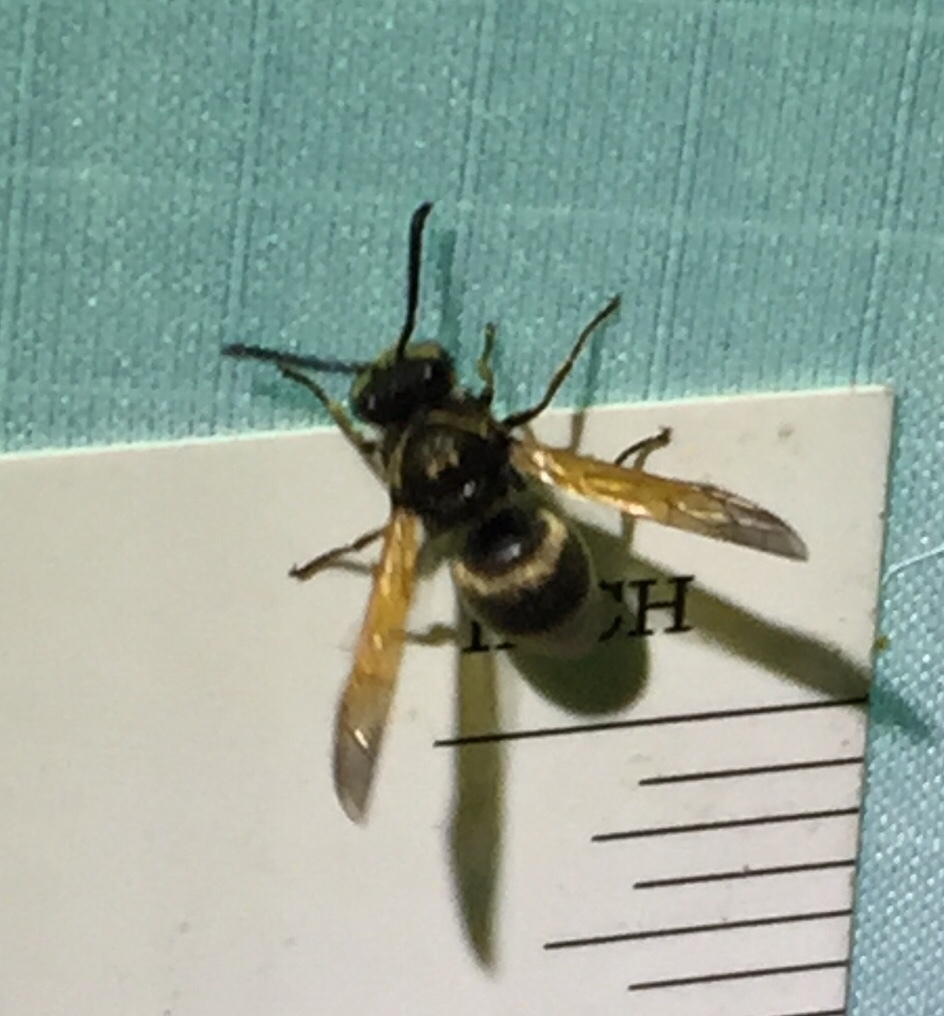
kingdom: Animalia
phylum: Arthropoda
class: Insecta
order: Hymenoptera
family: Eumenidae
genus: Pachodynerus
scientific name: Pachodynerus
